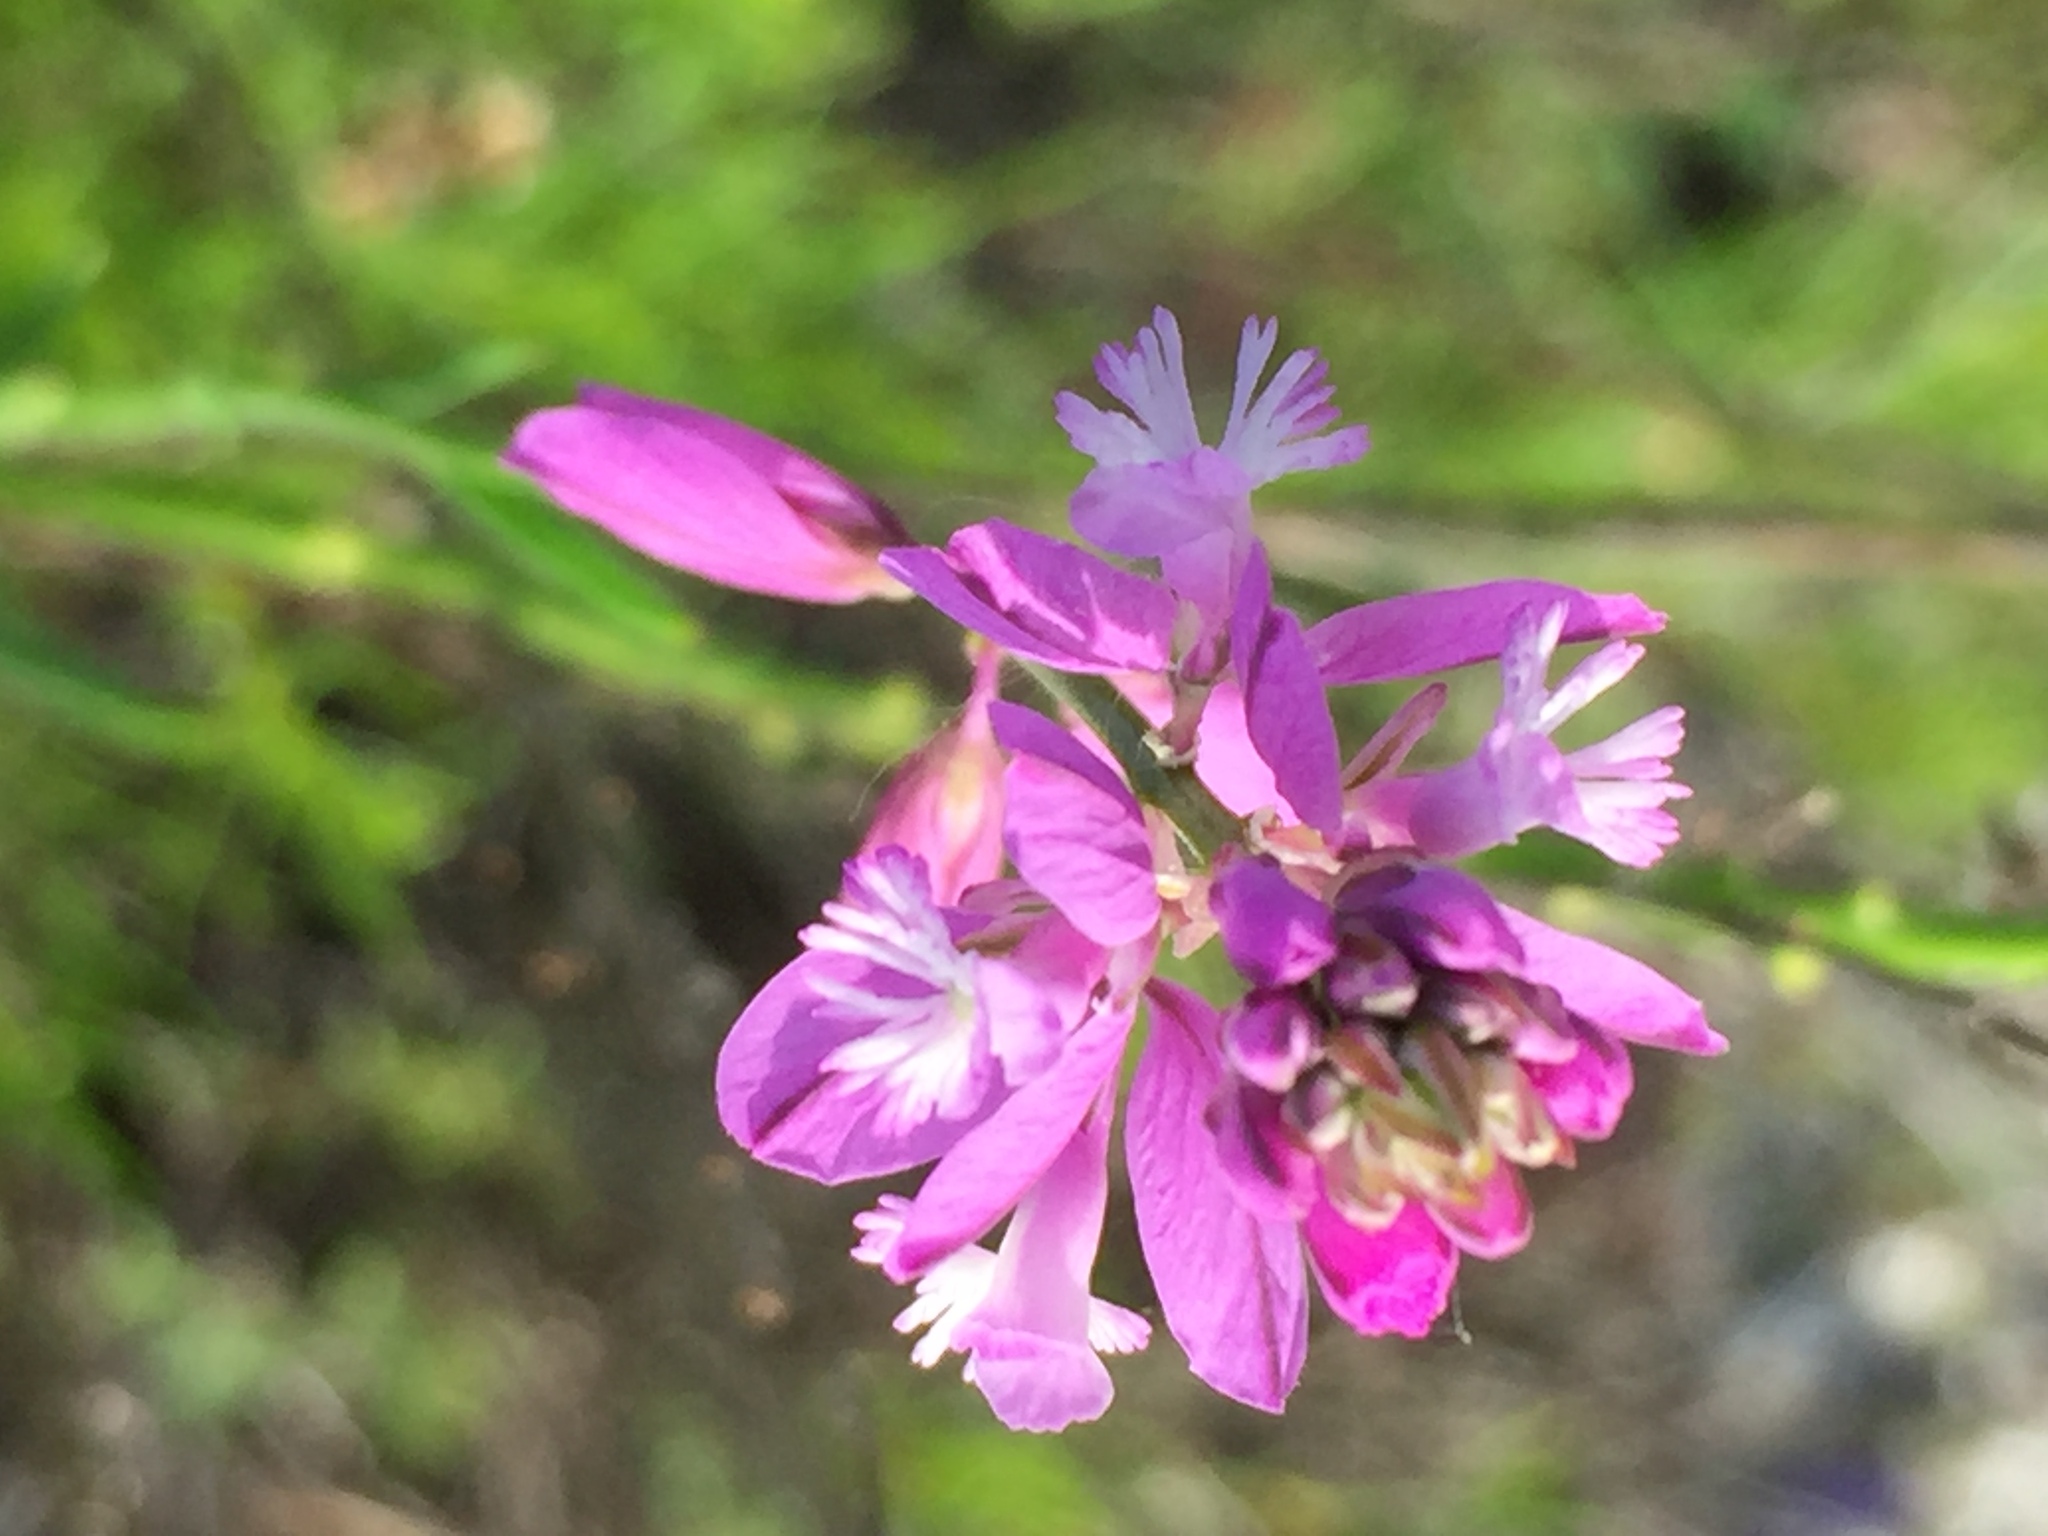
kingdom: Plantae
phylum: Tracheophyta
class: Magnoliopsida
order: Fabales
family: Polygalaceae
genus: Polygala
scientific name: Polygala nicaeensis
